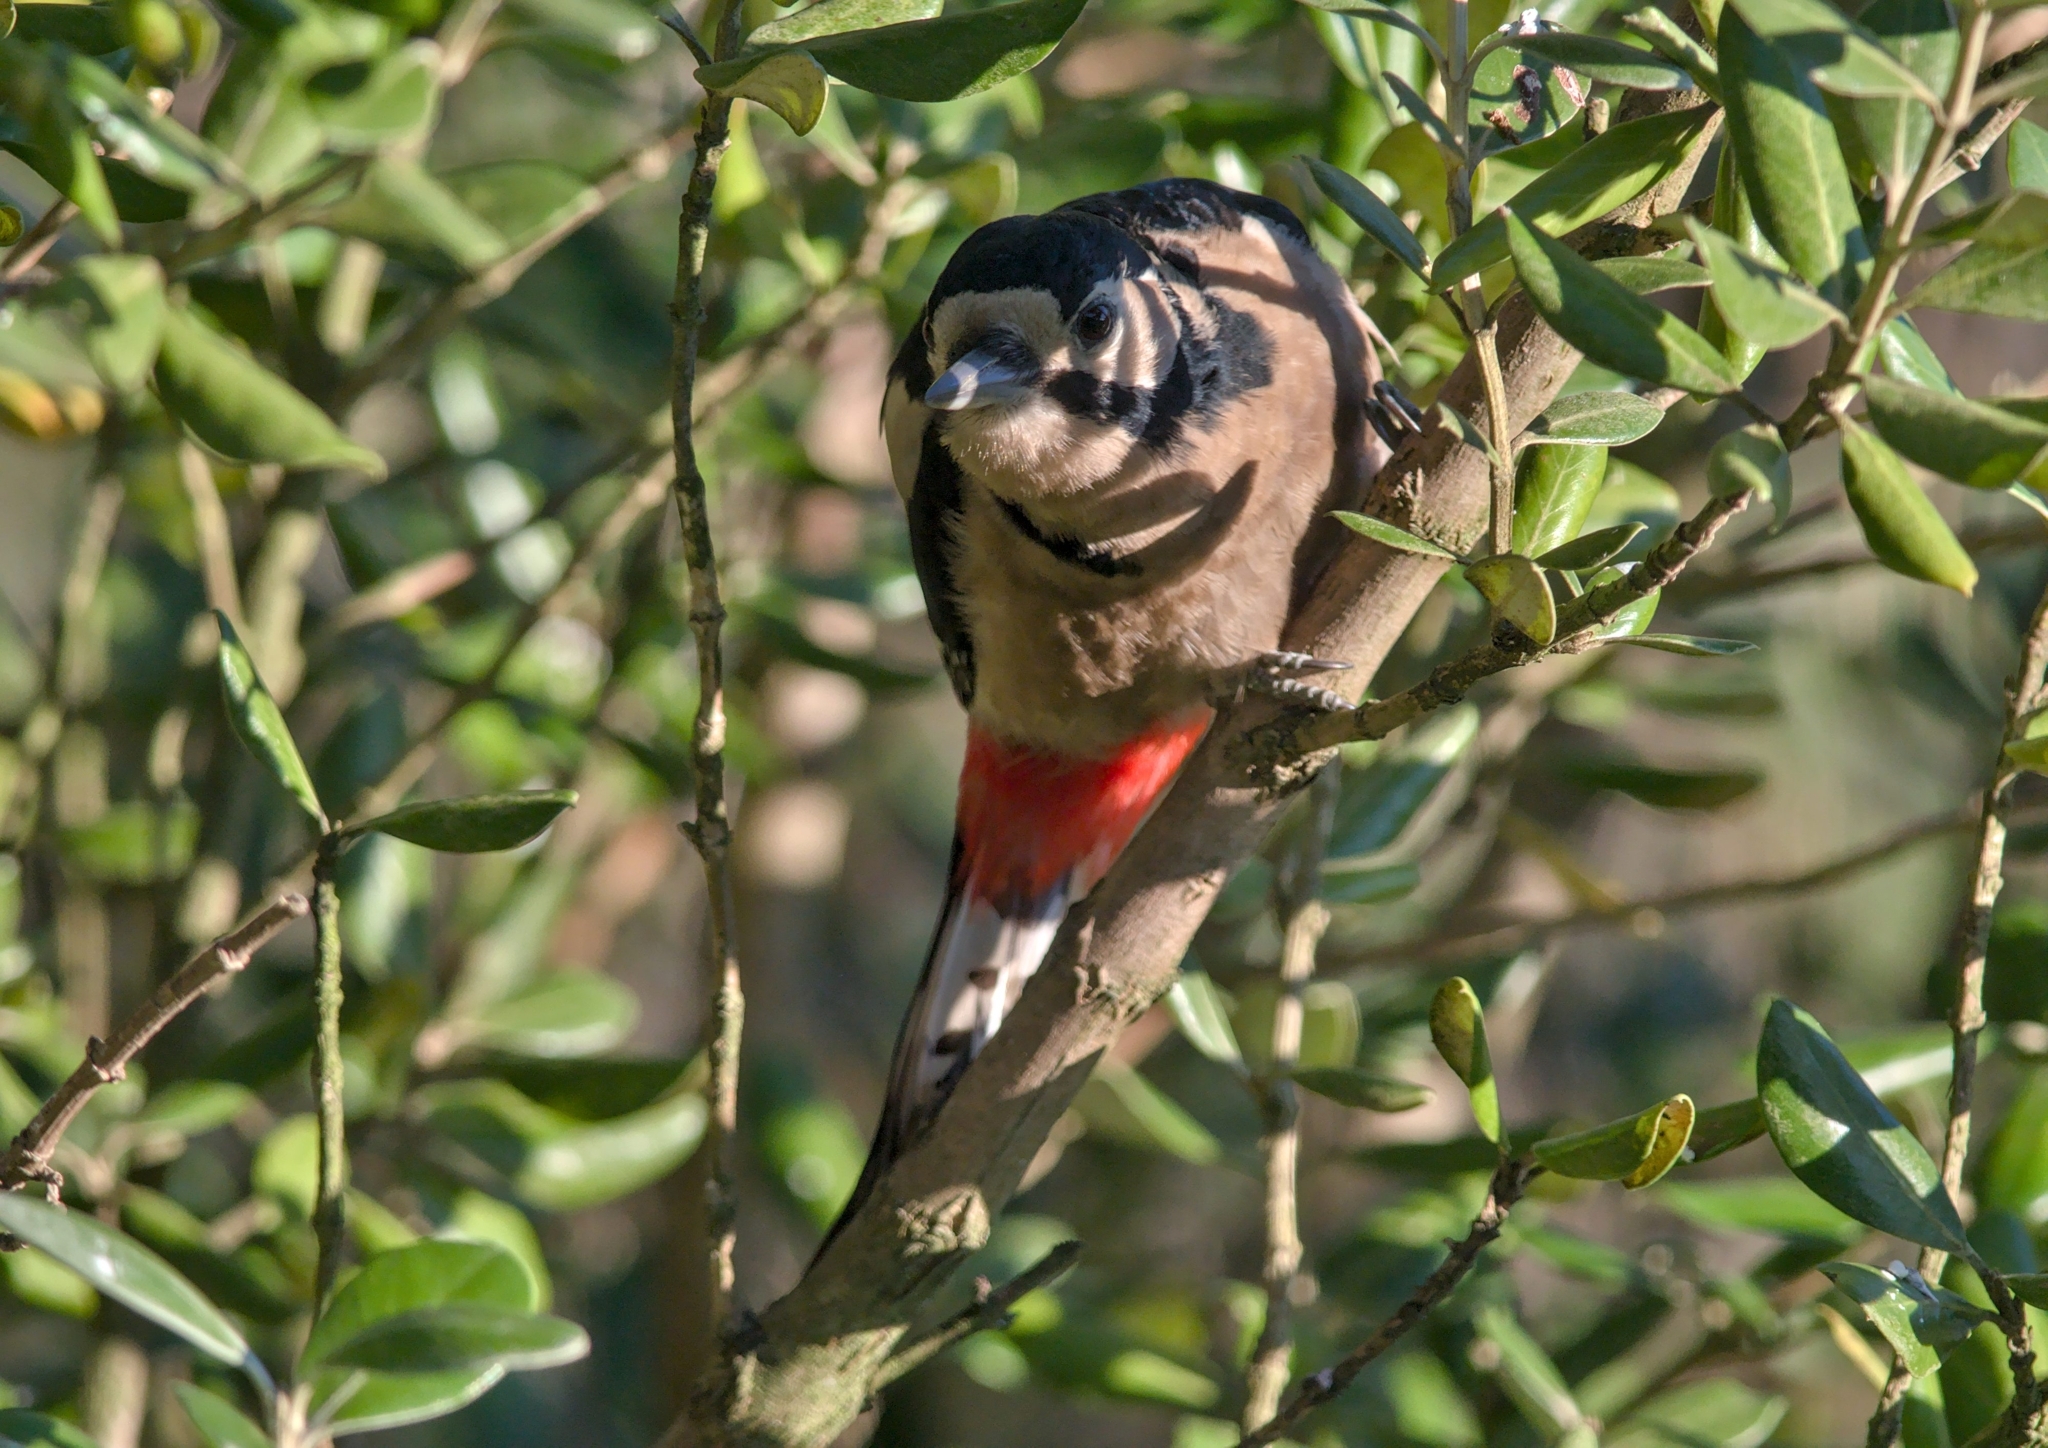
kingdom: Animalia
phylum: Chordata
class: Aves
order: Piciformes
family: Picidae
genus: Dendrocopos
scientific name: Dendrocopos major
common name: Great spotted woodpecker
